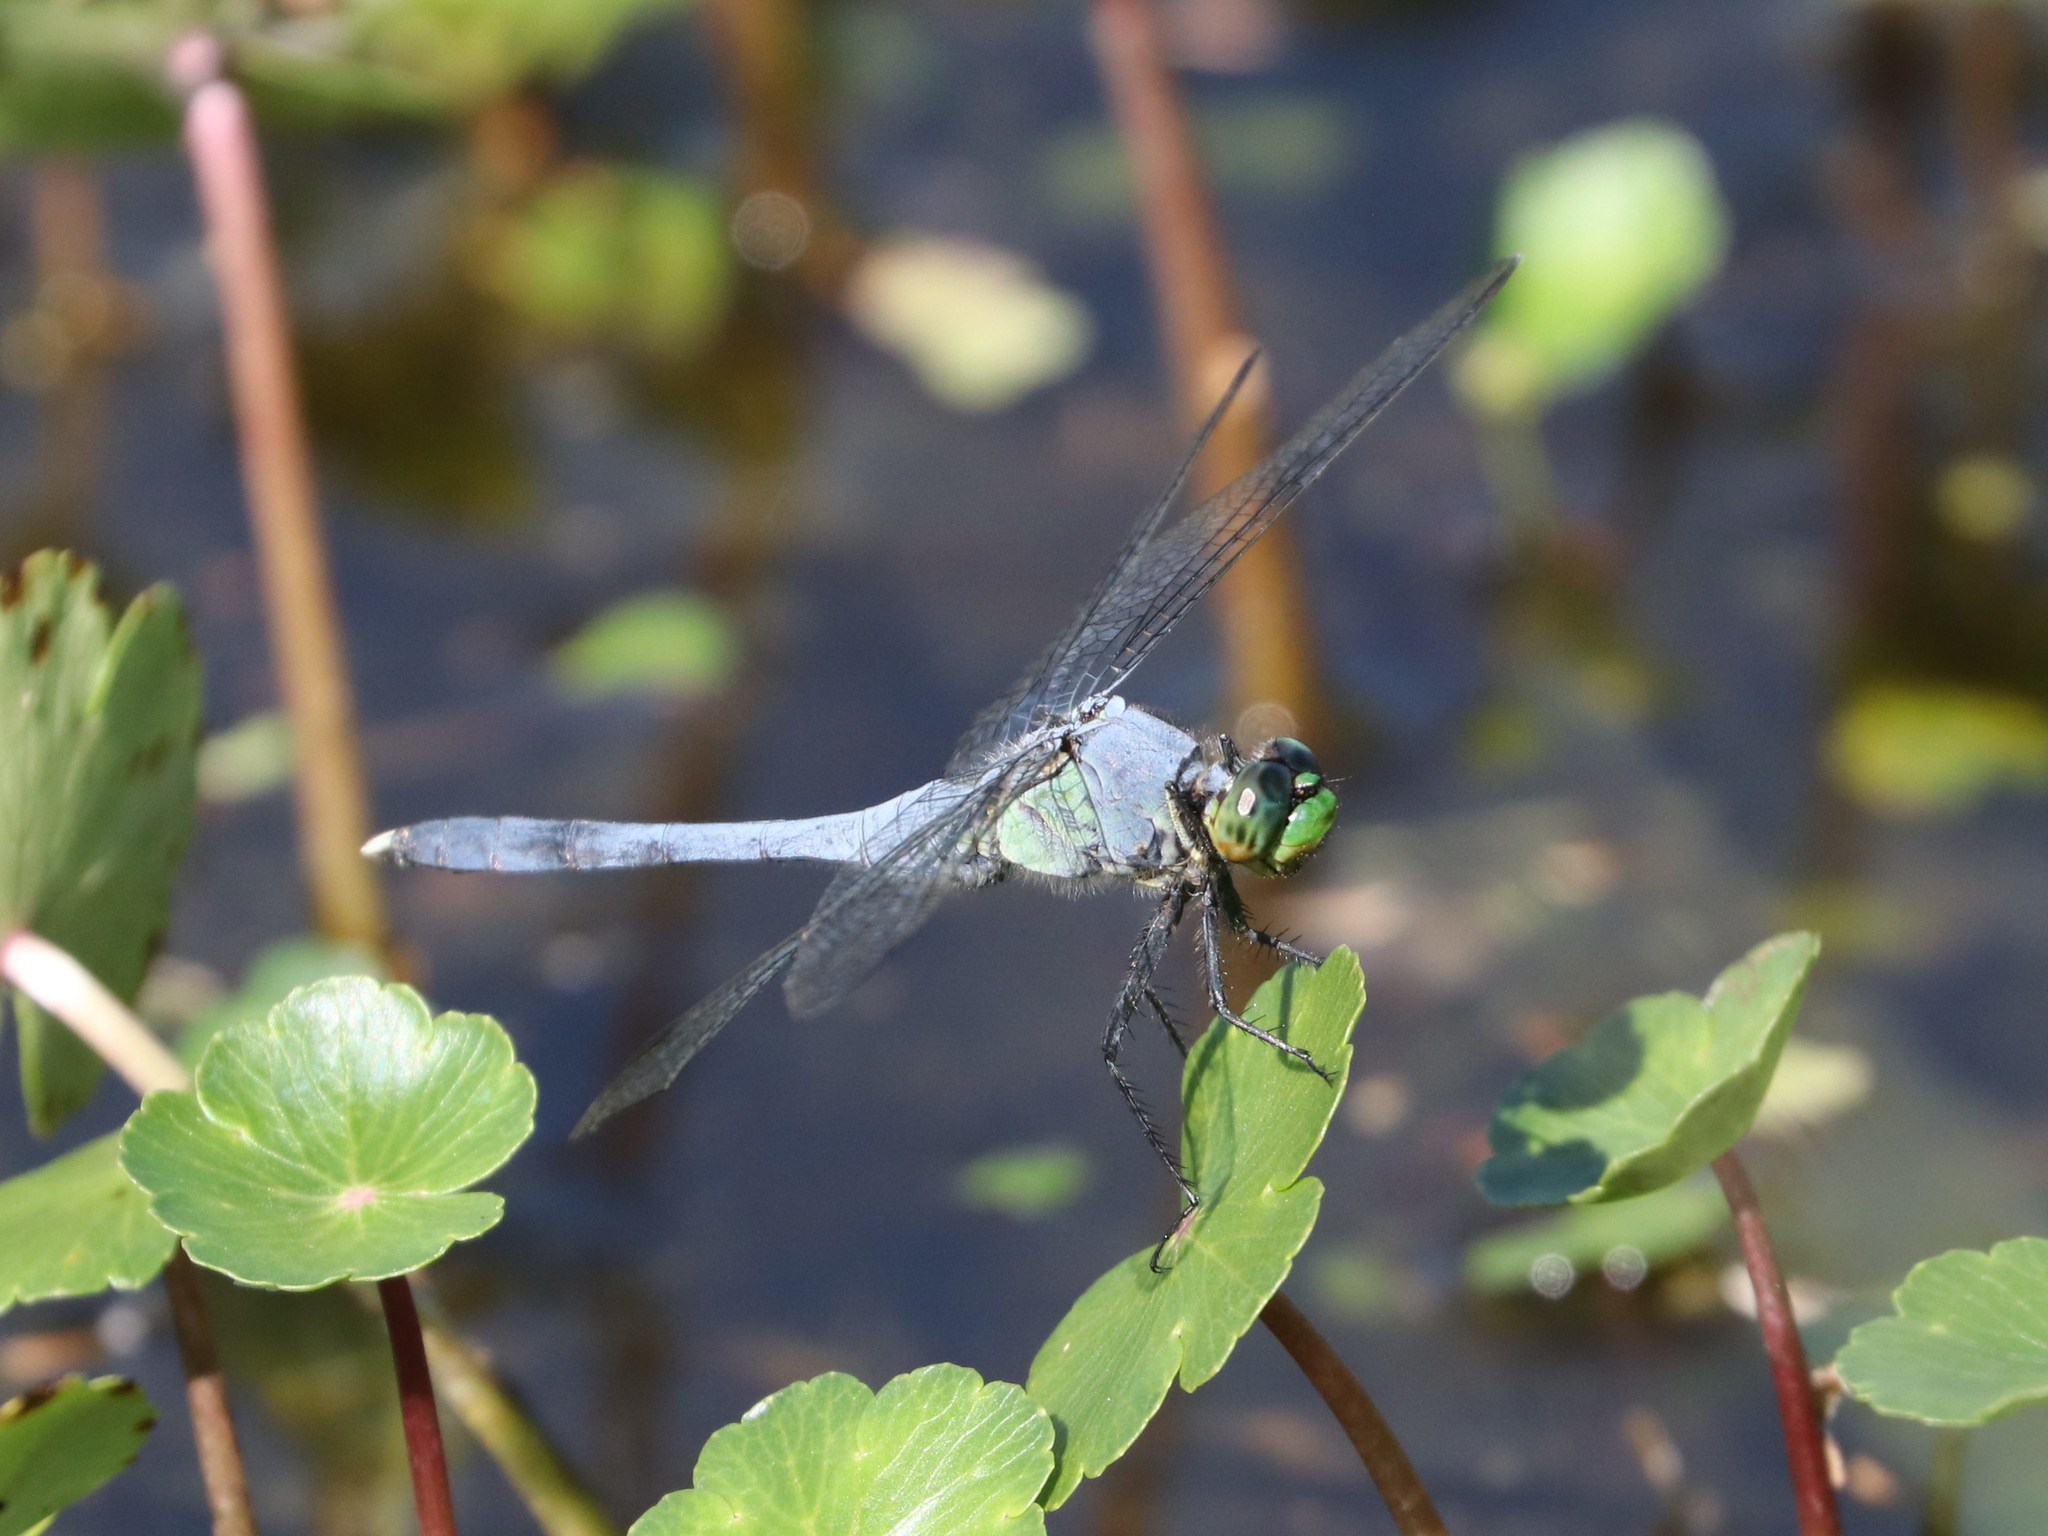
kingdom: Animalia
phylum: Arthropoda
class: Insecta
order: Odonata
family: Libellulidae
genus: Erythemis
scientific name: Erythemis simplicicollis
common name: Eastern pondhawk
